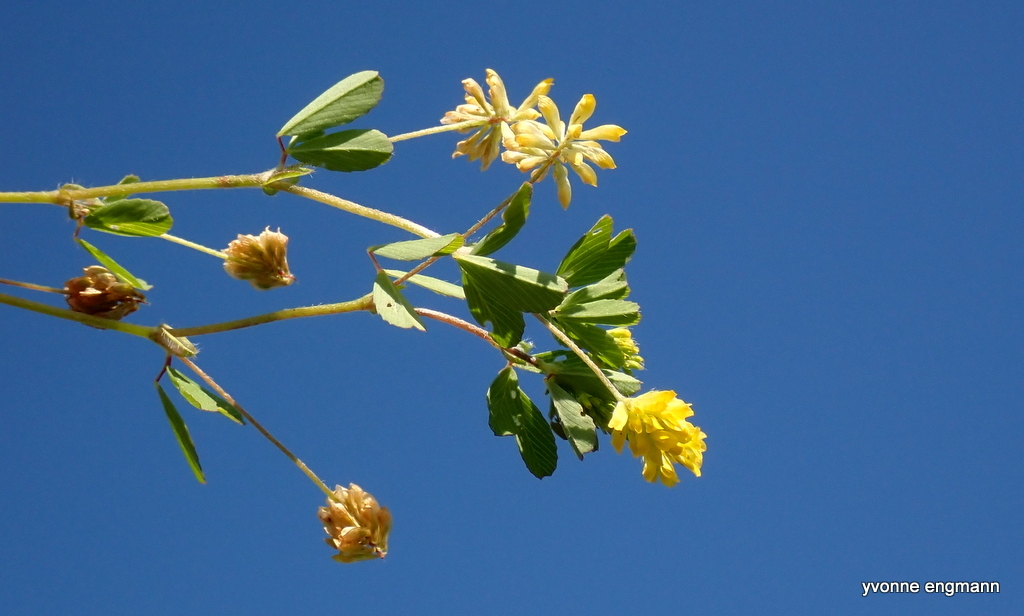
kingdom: Plantae
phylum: Tracheophyta
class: Magnoliopsida
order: Fabales
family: Fabaceae
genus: Trifolium
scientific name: Trifolium dubium
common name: Suckling clover
